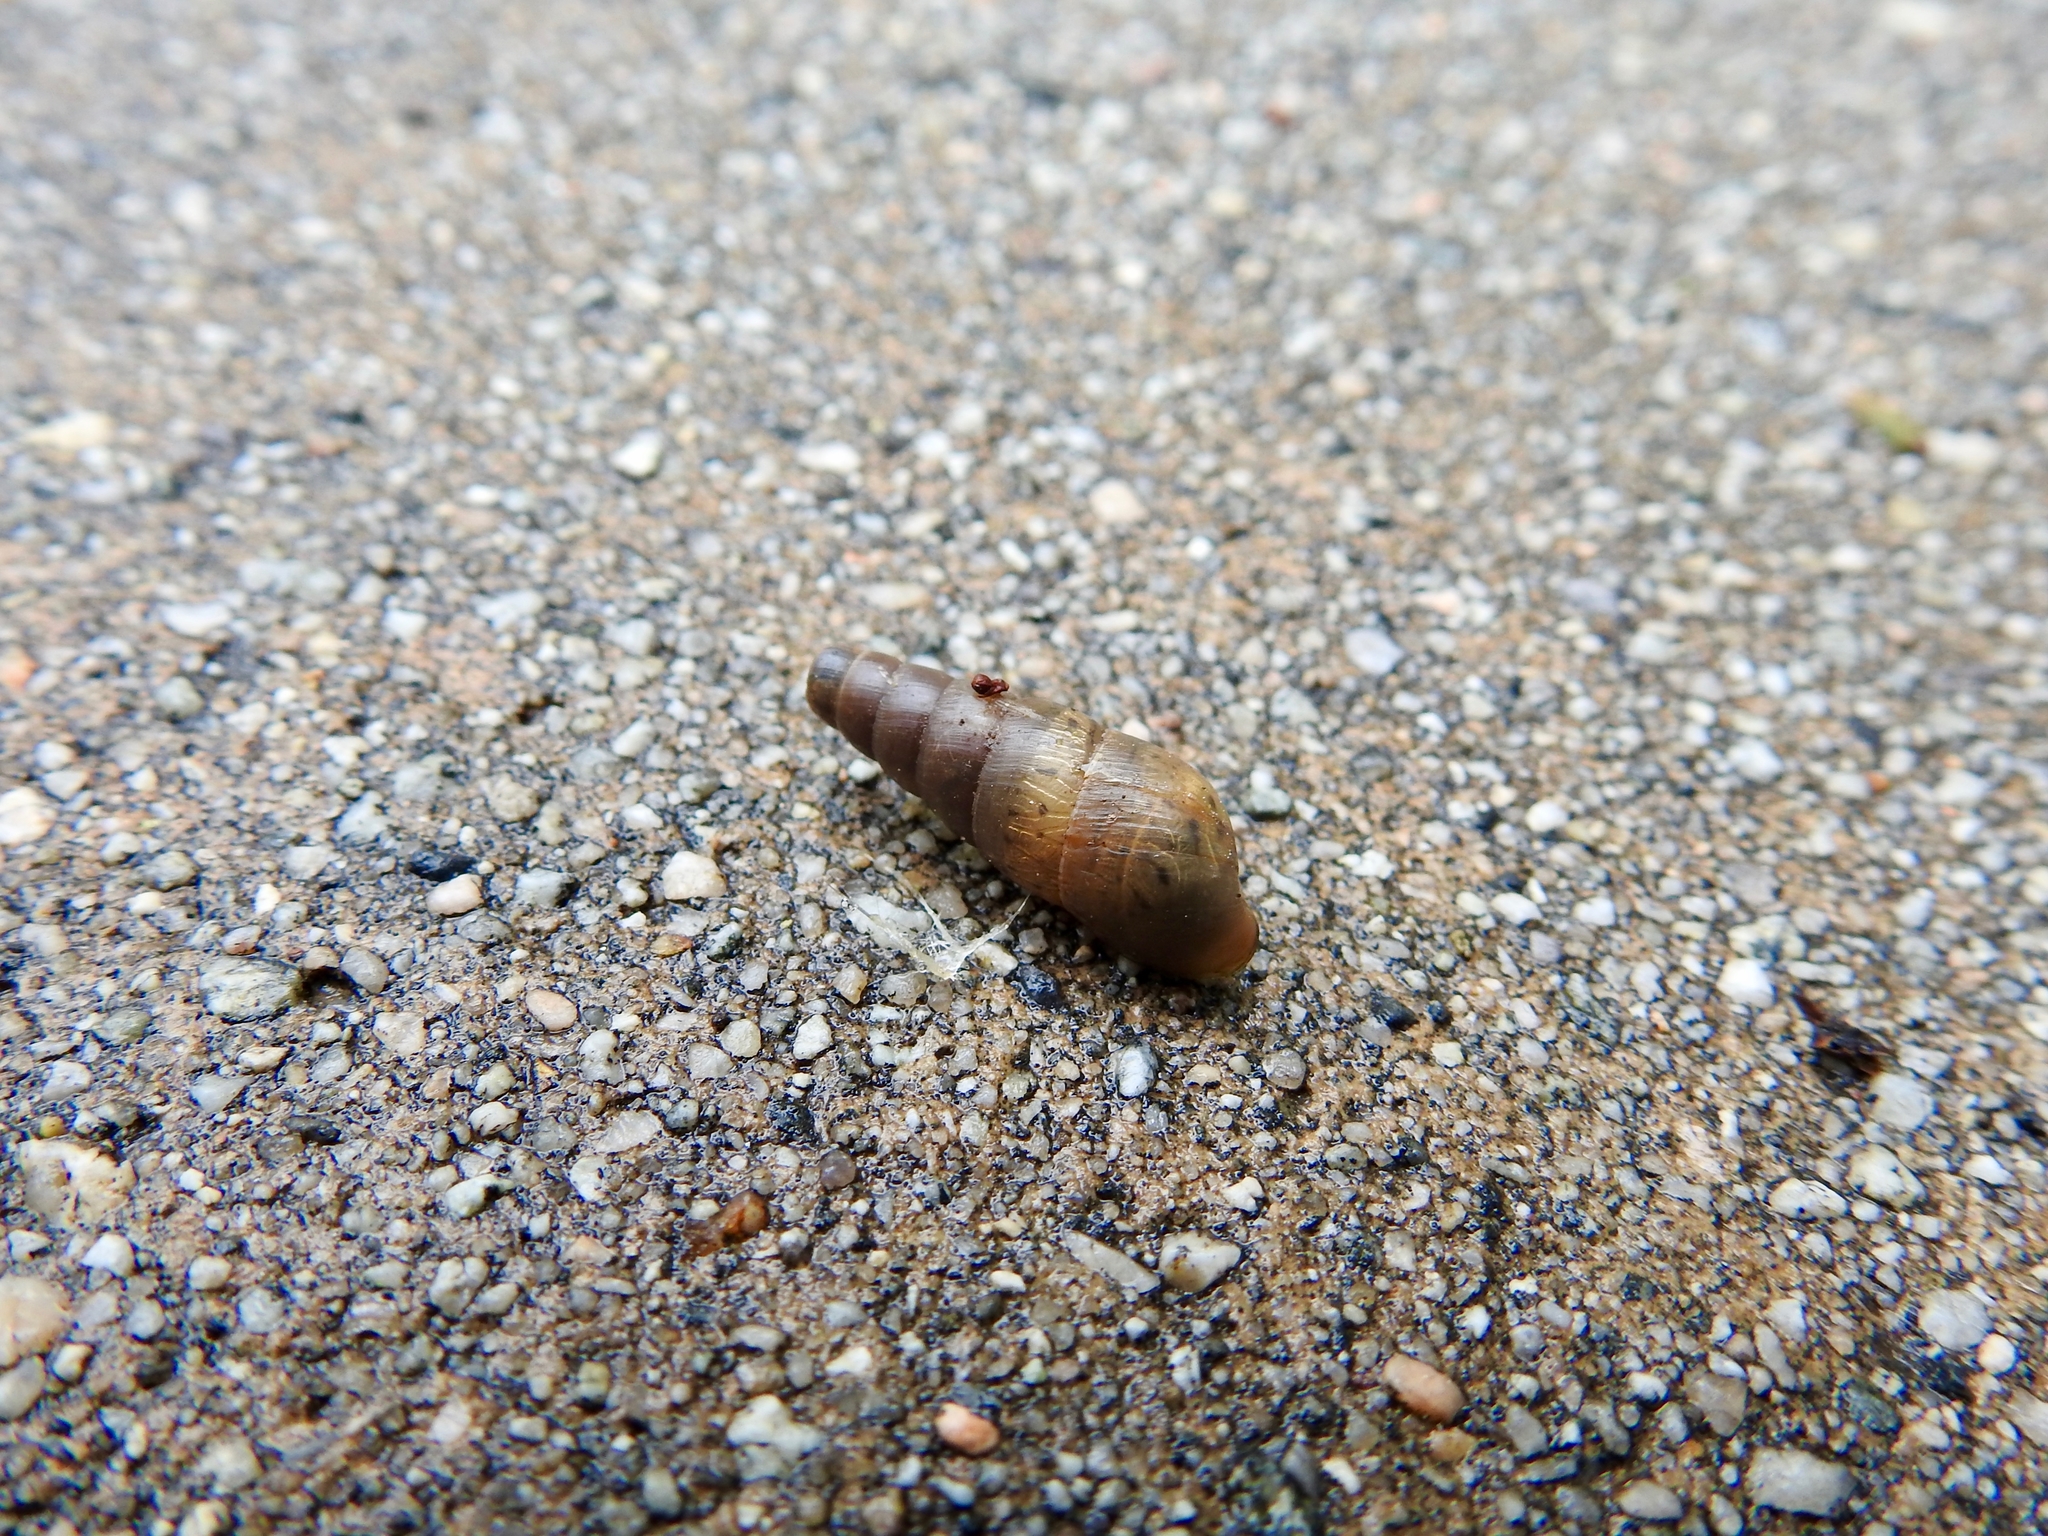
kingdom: Animalia
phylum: Mollusca
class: Gastropoda
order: Stylommatophora
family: Achatinidae
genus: Rumina
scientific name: Rumina decollata
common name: Decollate snail
